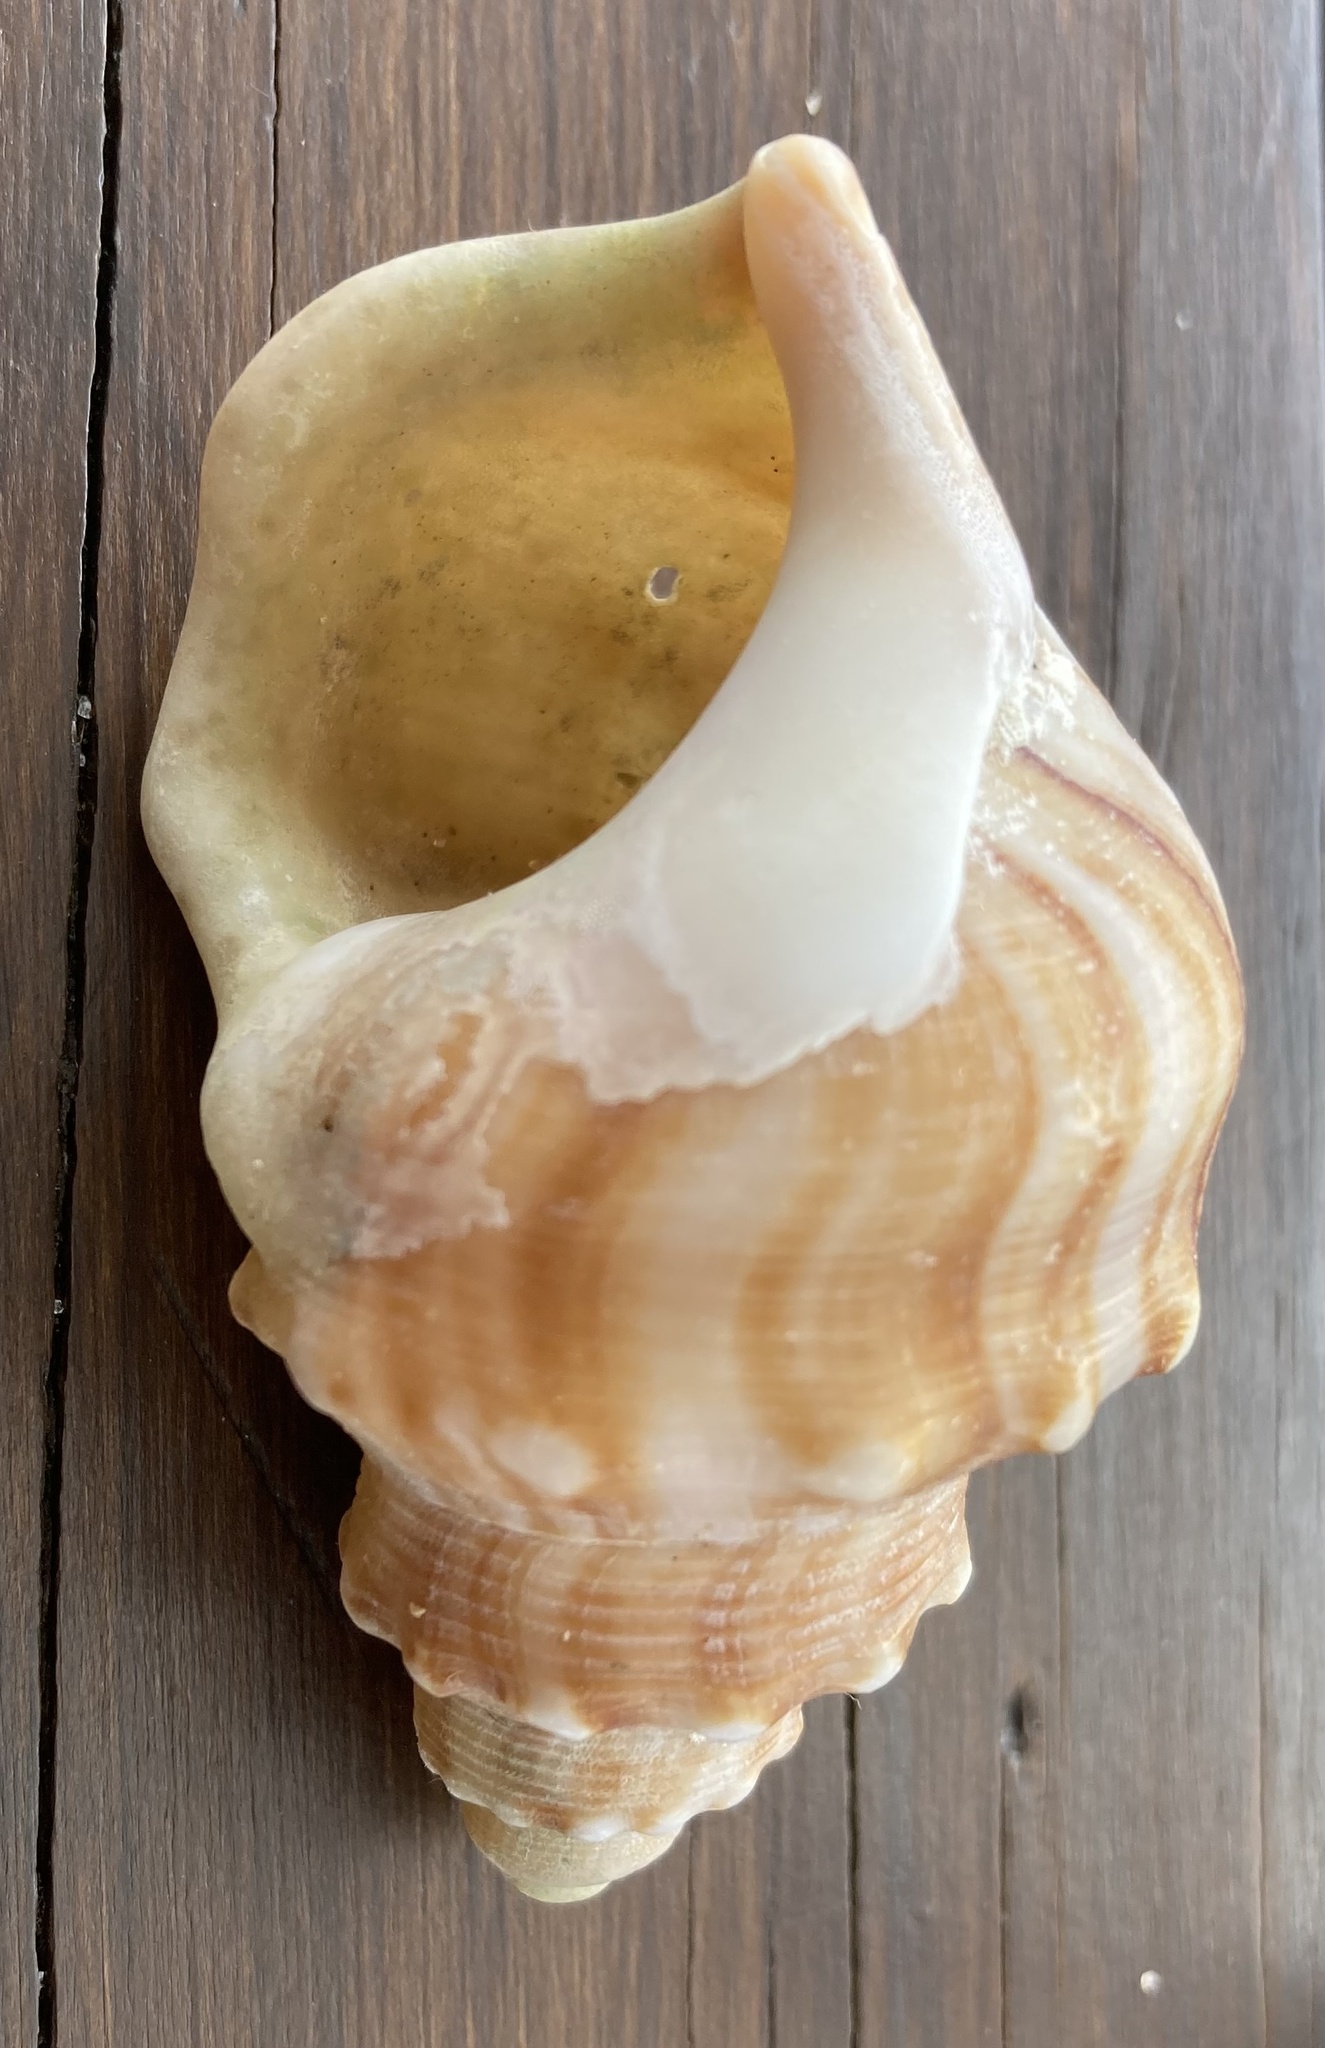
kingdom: Animalia
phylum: Mollusca
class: Gastropoda
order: Littorinimorpha
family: Struthiolariidae
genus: Struthiolaria
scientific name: Struthiolaria papulosa
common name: Large ostrich foot
